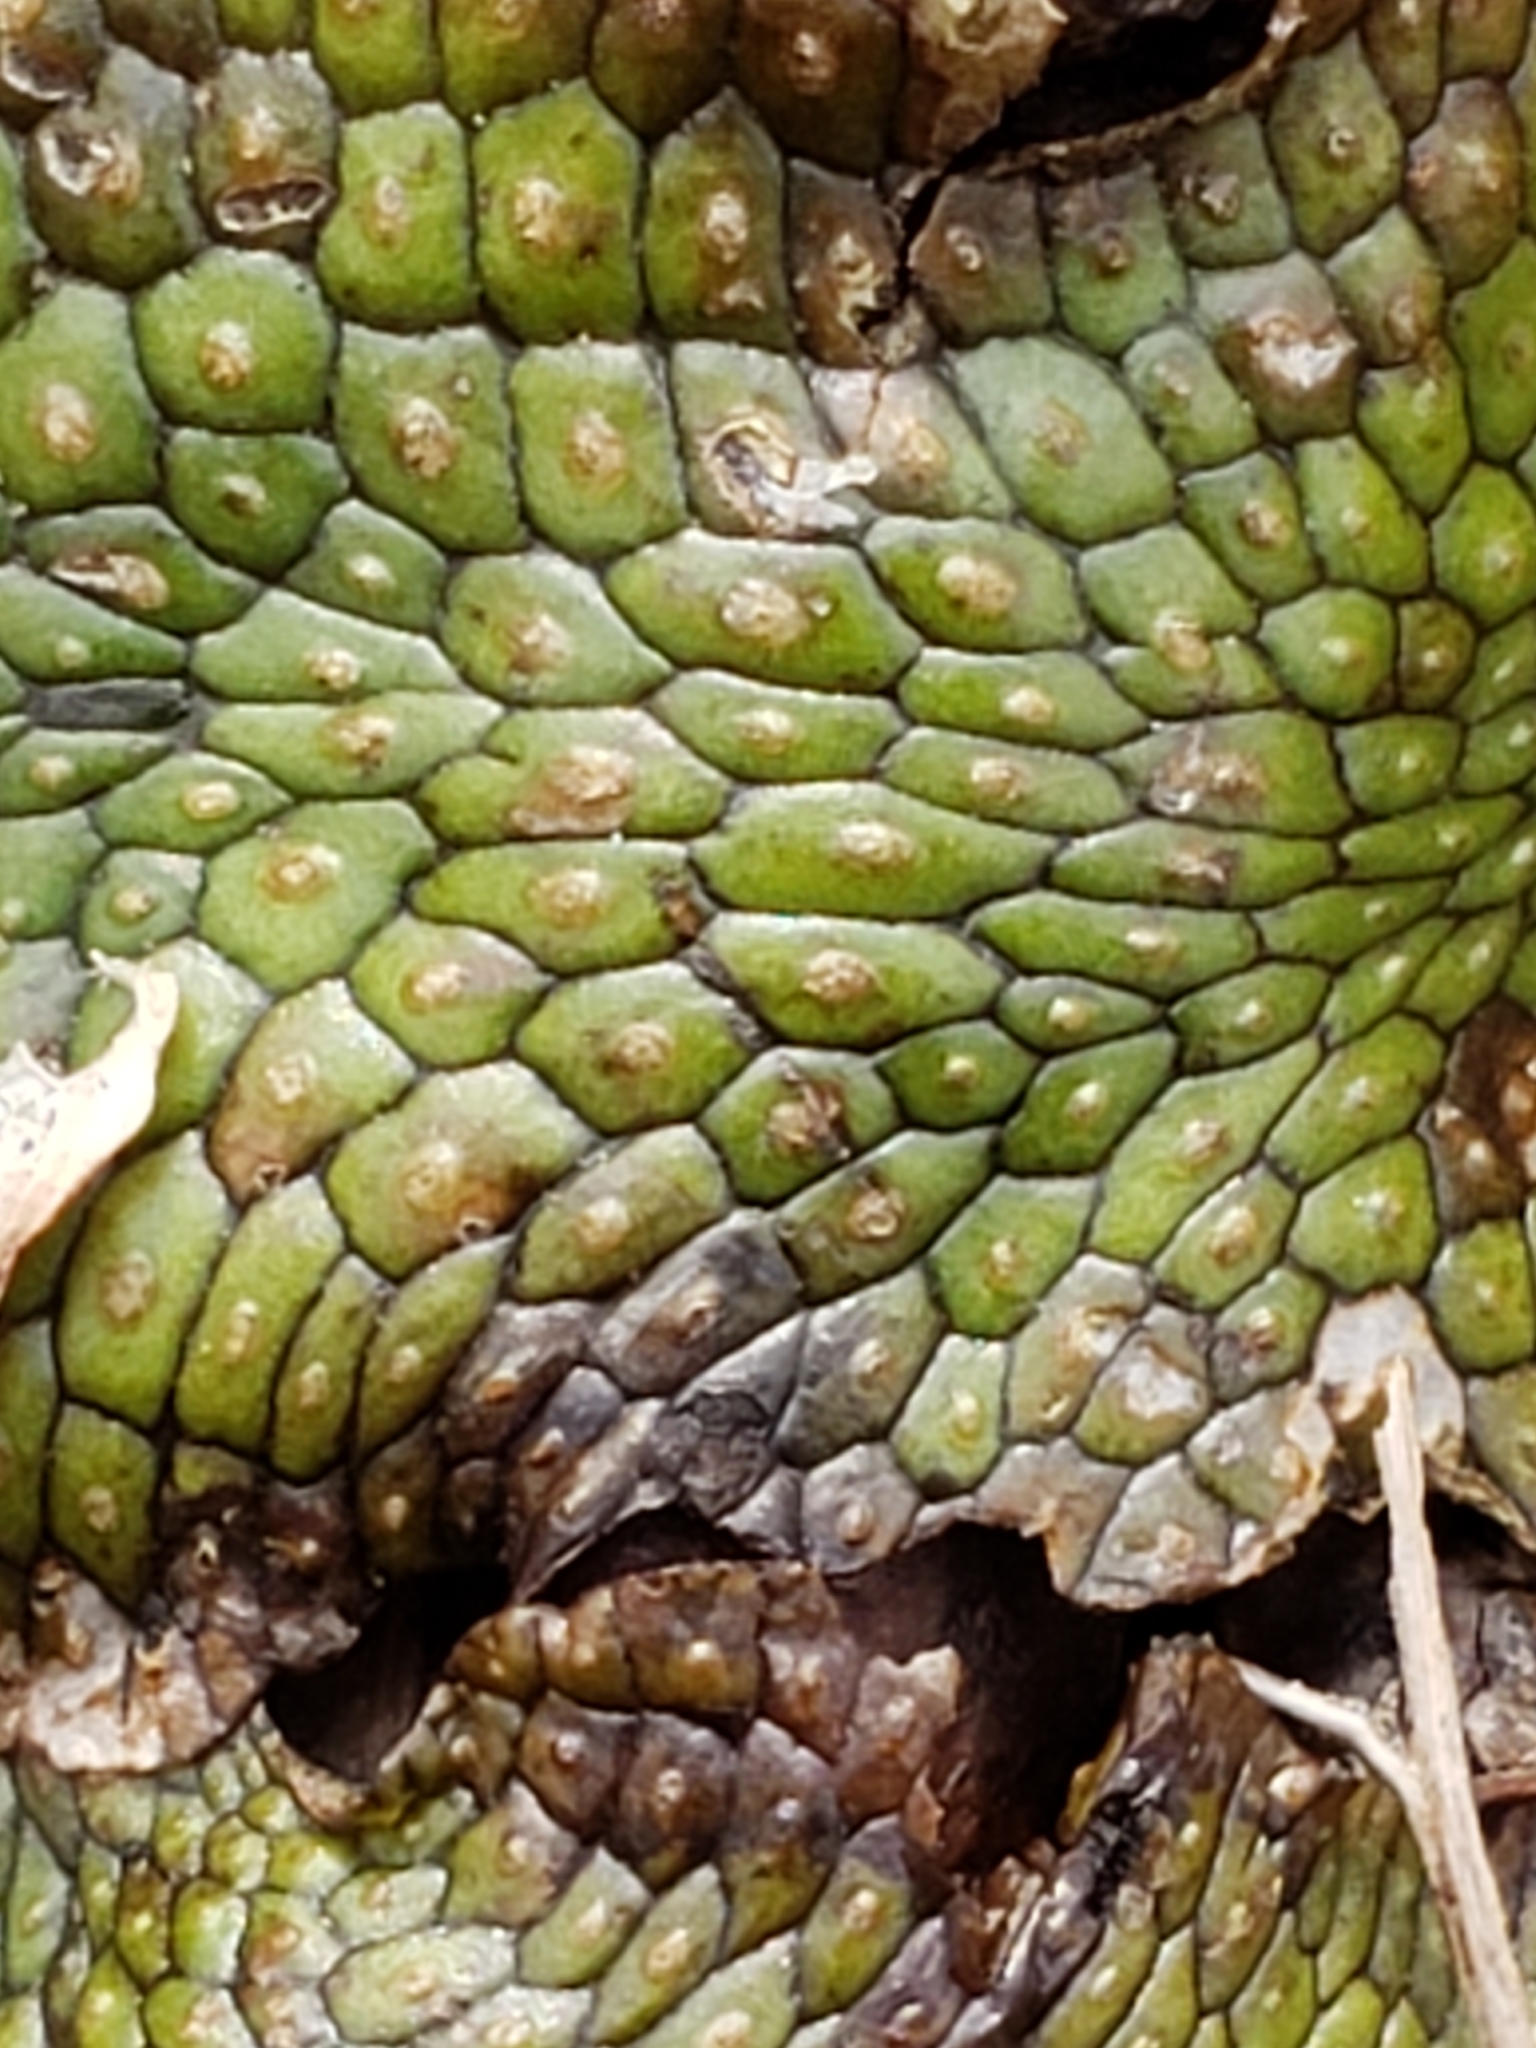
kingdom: Plantae
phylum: Marchantiophyta
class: Marchantiopsida
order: Marchantiales
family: Conocephalaceae
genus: Conocephalum
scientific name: Conocephalum salebrosum
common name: Cat-tongue liverwort
